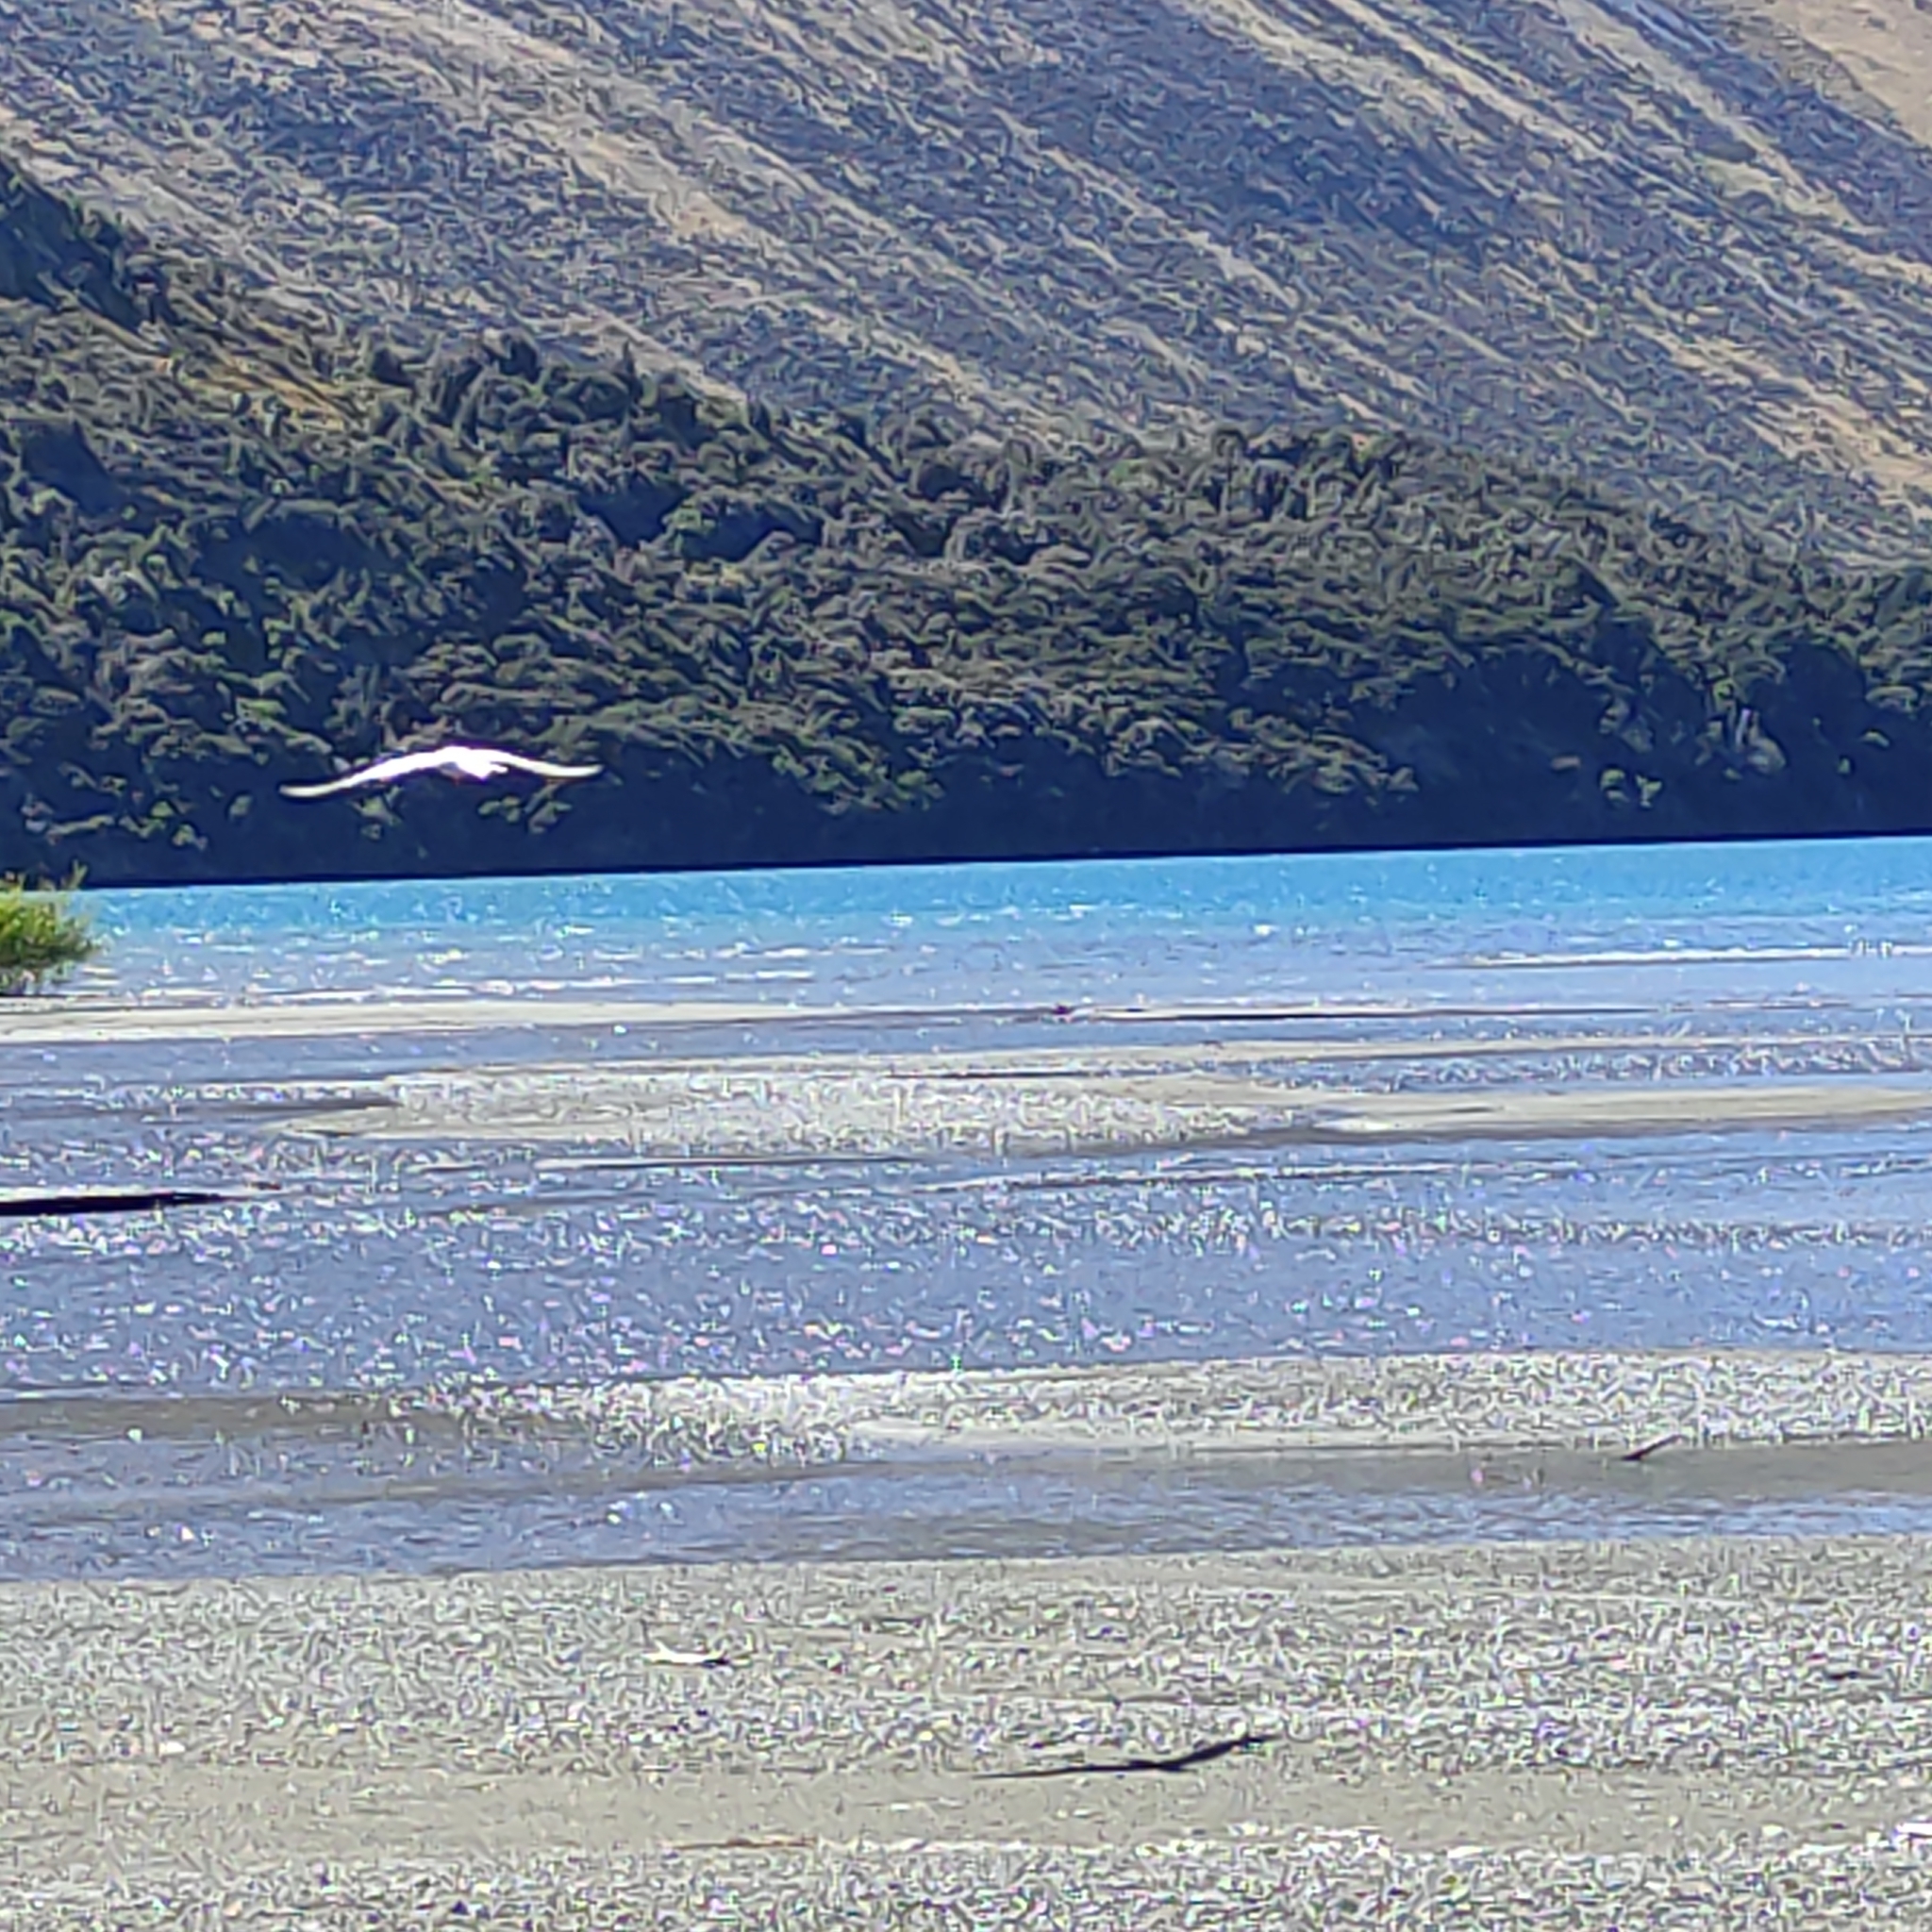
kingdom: Animalia
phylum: Chordata
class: Aves
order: Charadriiformes
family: Laridae
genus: Sterna
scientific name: Sterna striata
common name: White-fronted tern
